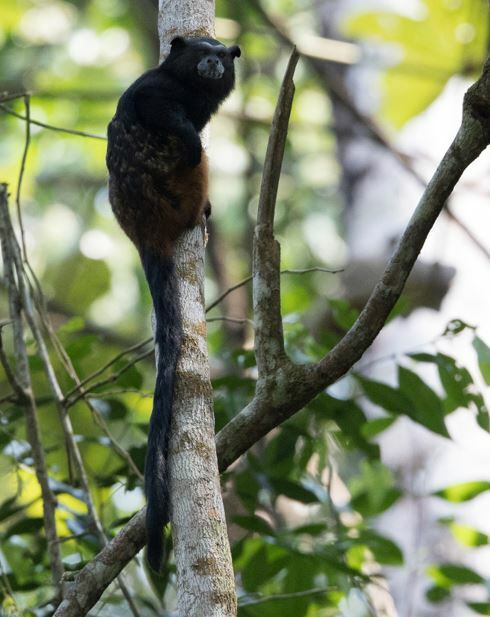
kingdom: Animalia
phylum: Chordata
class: Mammalia
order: Primates
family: Callitrichidae
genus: Leontocebus
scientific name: Leontocebus weddelli
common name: Weddell's saddle-back tamarin
